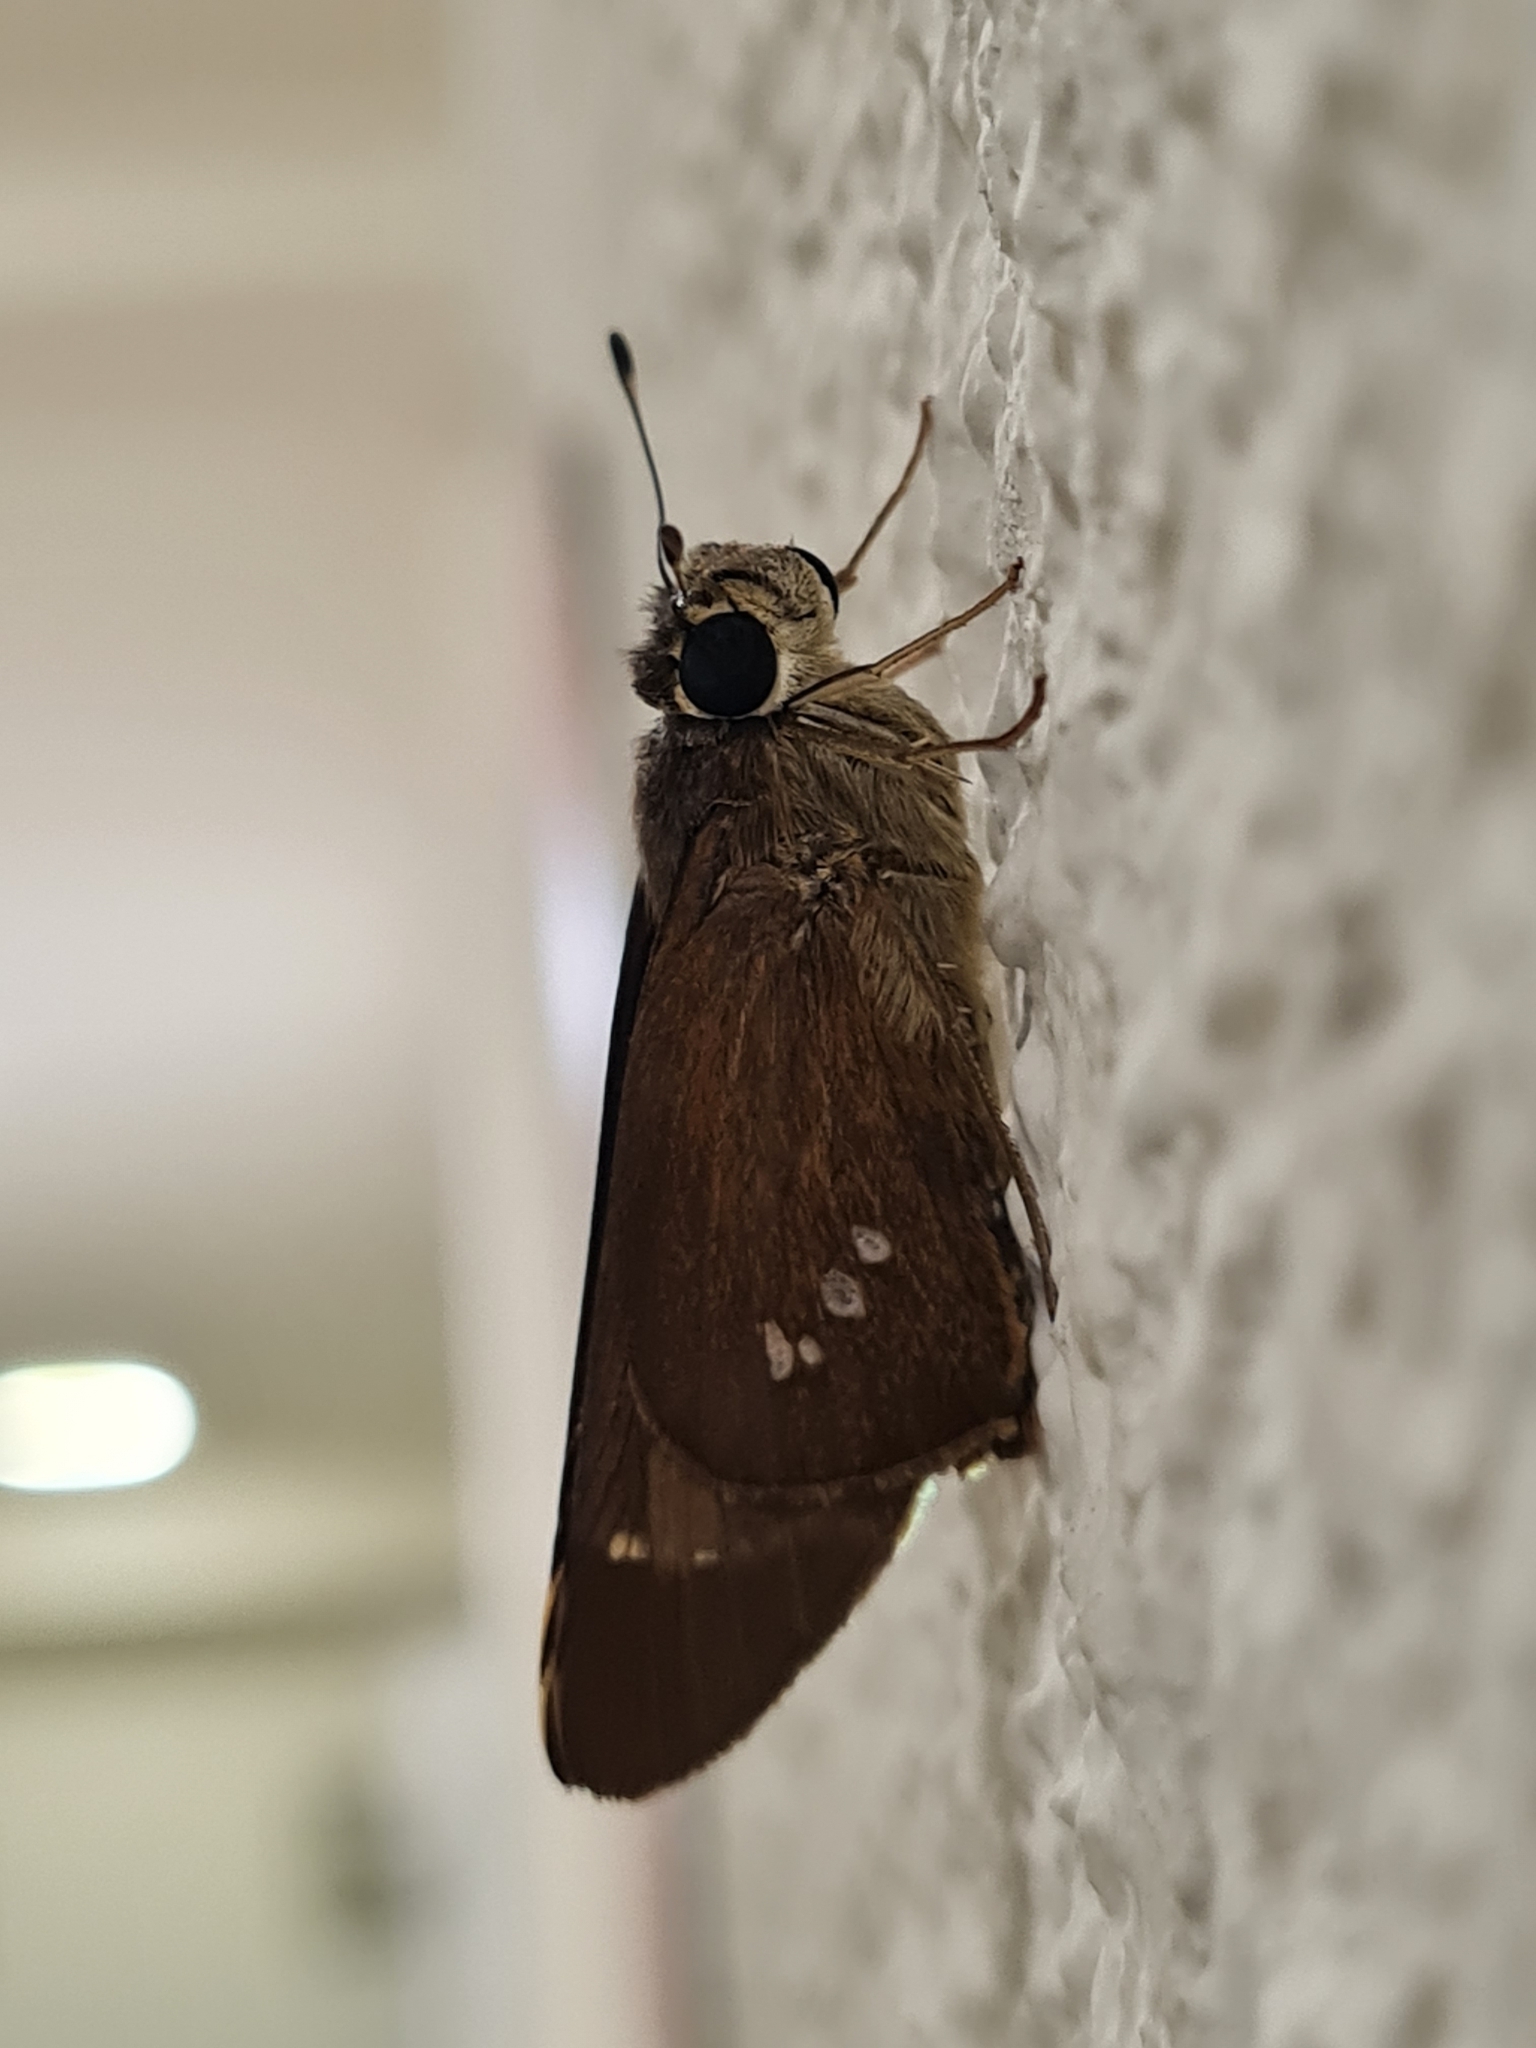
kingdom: Animalia
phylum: Arthropoda
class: Insecta
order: Lepidoptera
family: Hesperiidae
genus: Calpodes
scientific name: Calpodes ethlius
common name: Brazilian skipper
